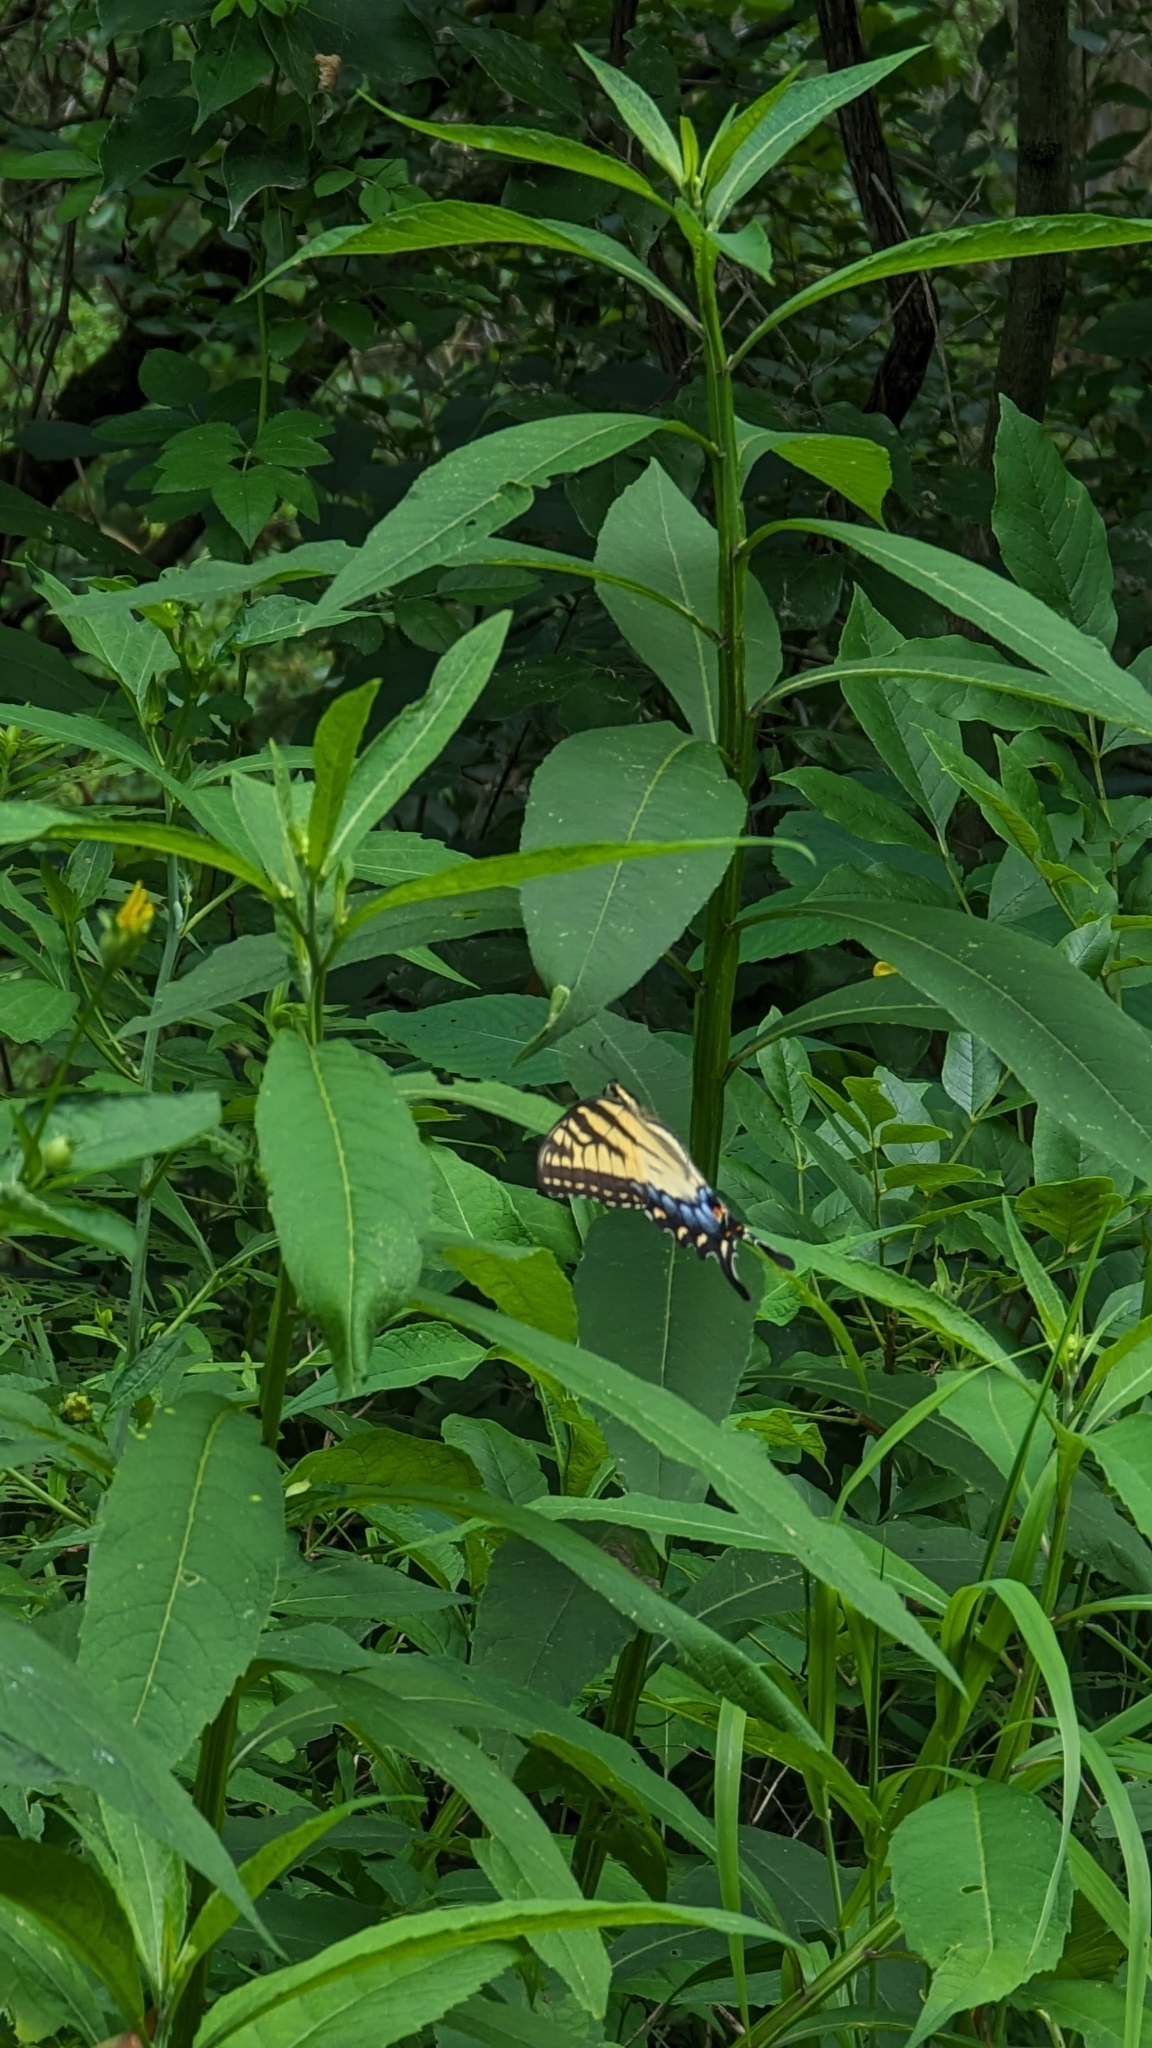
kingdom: Animalia
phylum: Arthropoda
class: Insecta
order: Lepidoptera
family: Papilionidae
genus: Papilio
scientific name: Papilio glaucus
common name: Tiger swallowtail
